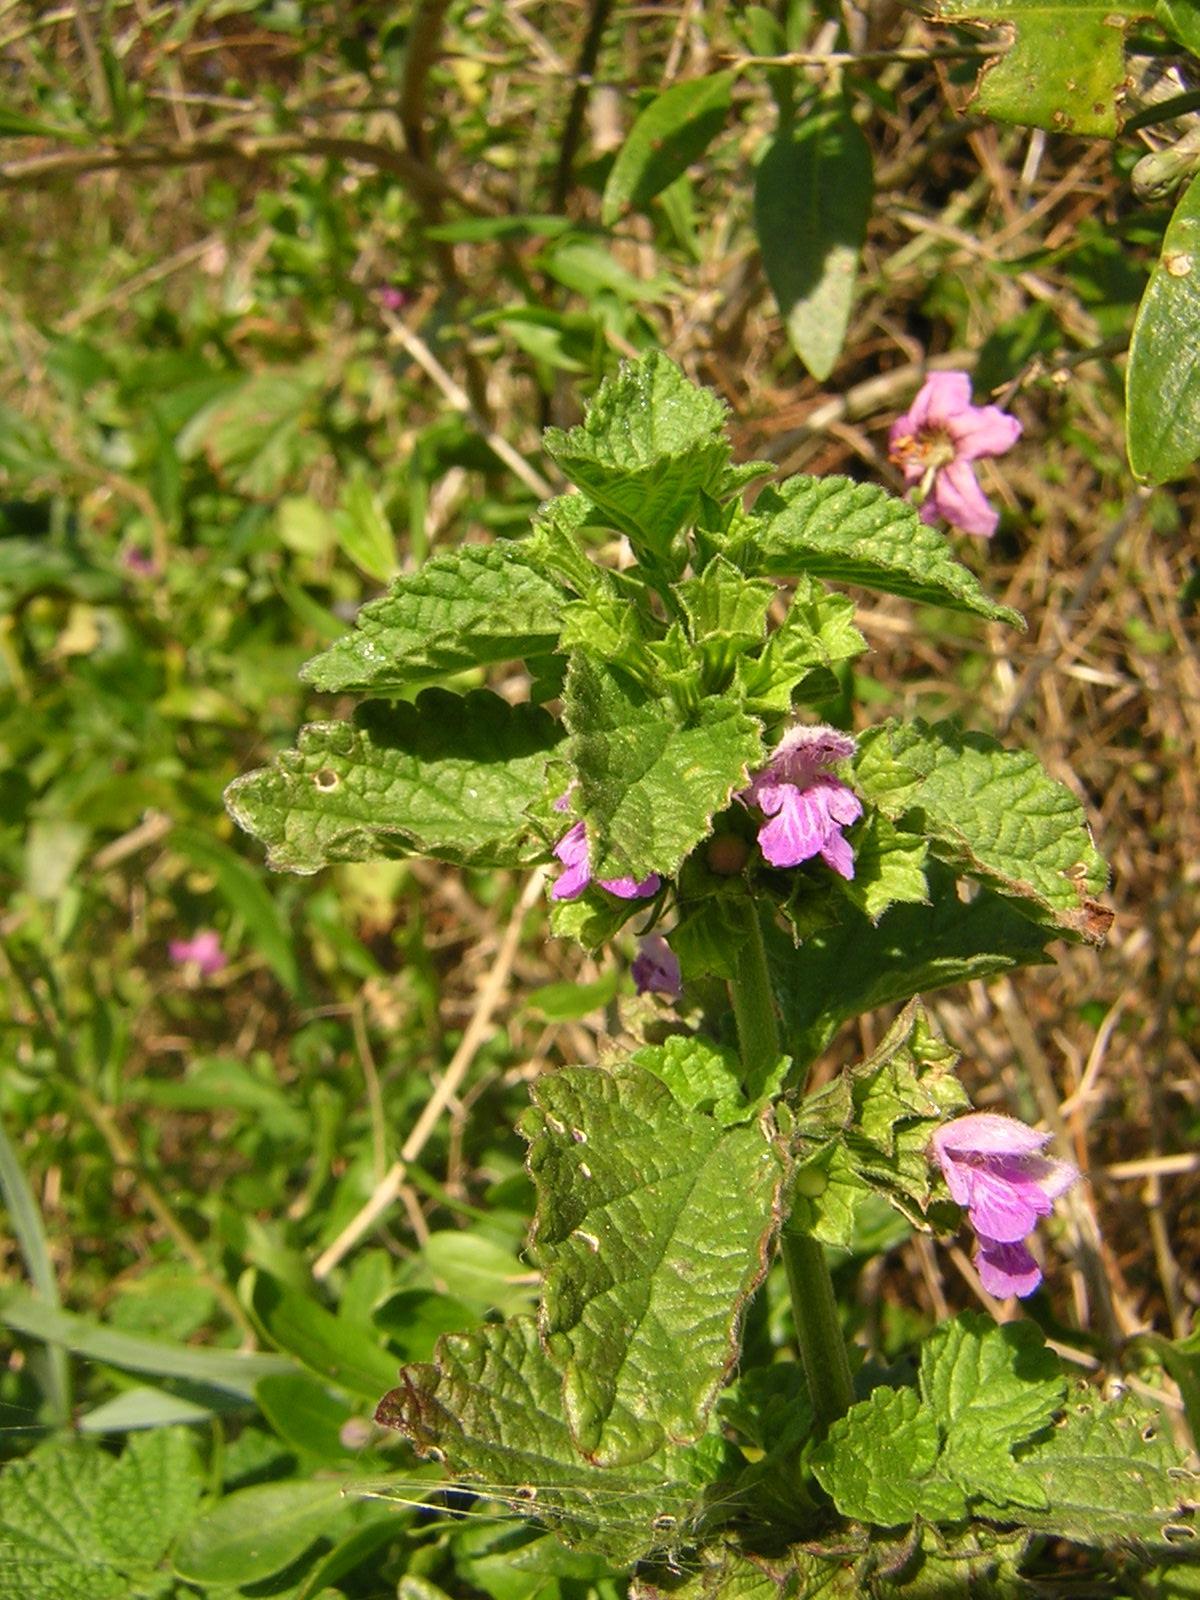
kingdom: Plantae
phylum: Tracheophyta
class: Magnoliopsida
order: Lamiales
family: Lamiaceae
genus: Ballota
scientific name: Ballota nigra
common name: Black horehound
